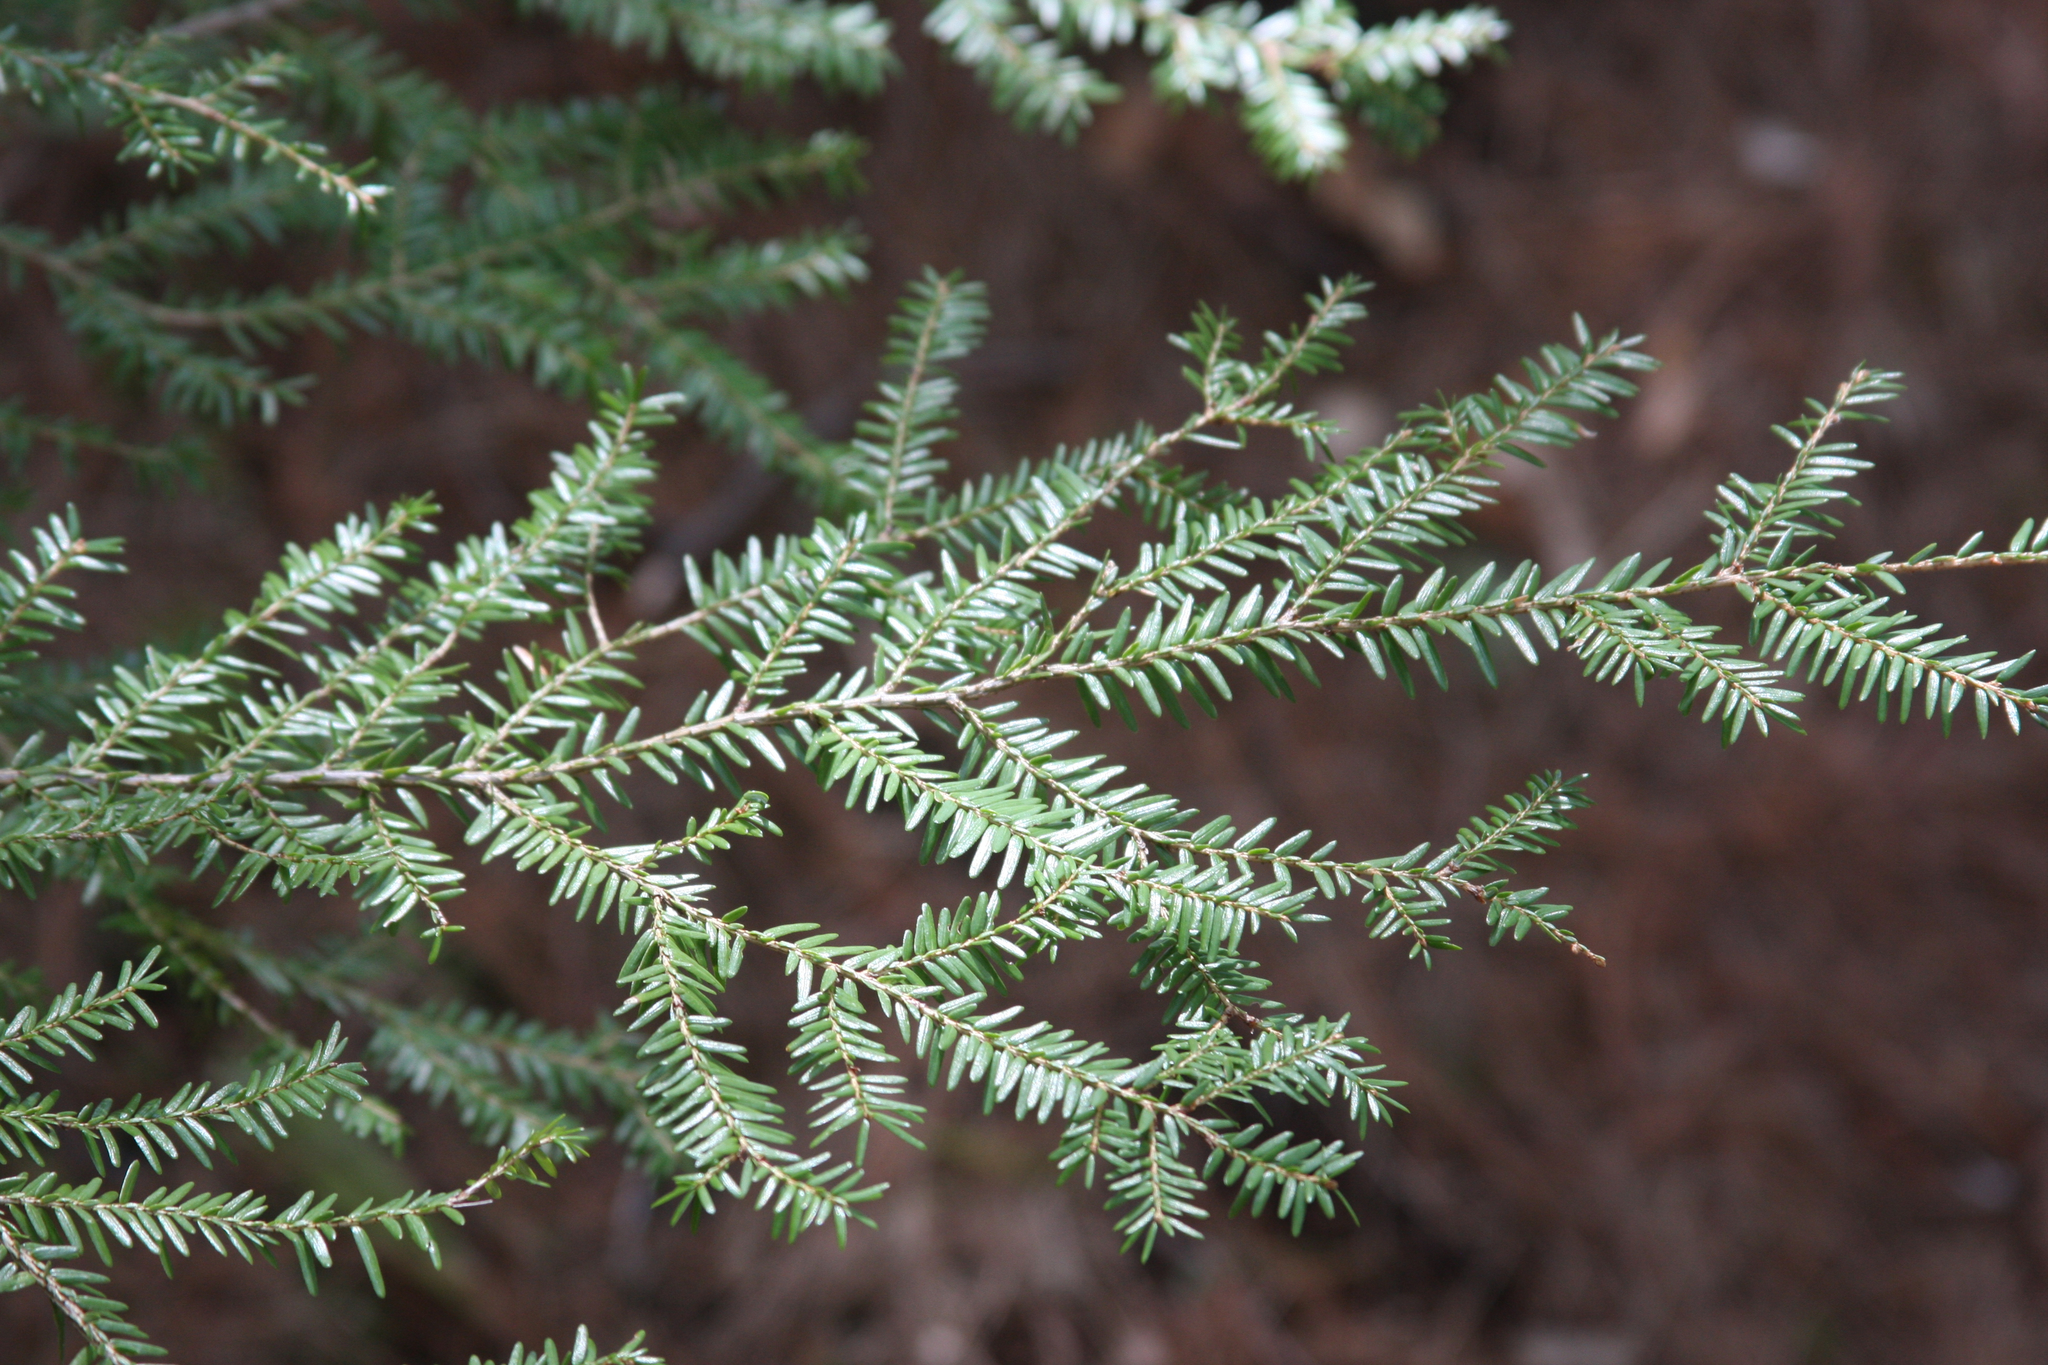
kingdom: Plantae
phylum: Tracheophyta
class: Pinopsida
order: Pinales
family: Pinaceae
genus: Tsuga
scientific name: Tsuga canadensis
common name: Eastern hemlock
